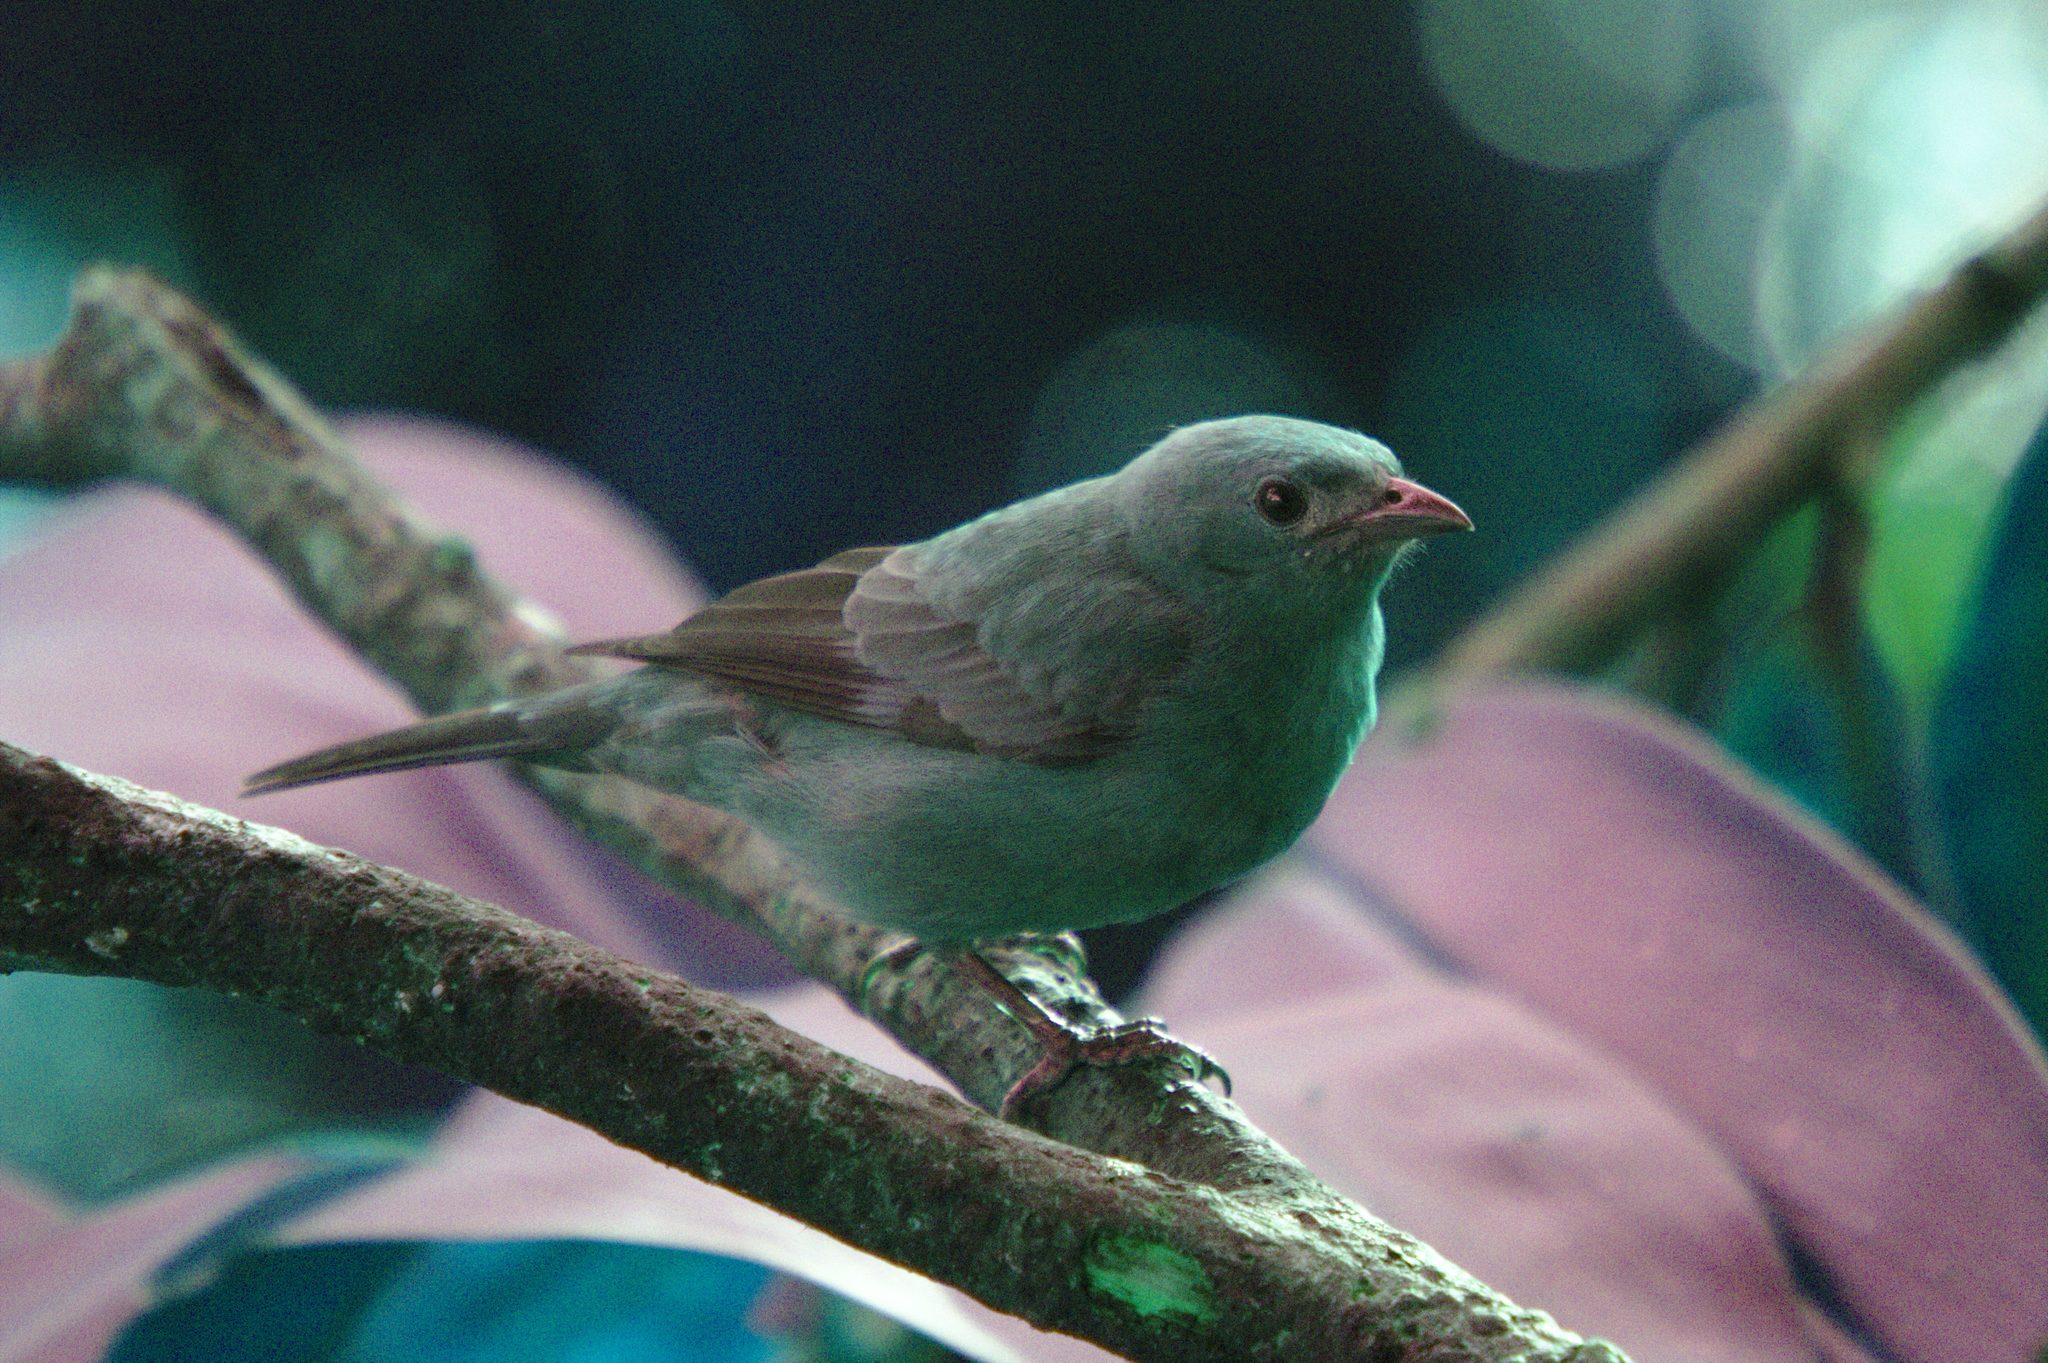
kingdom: Animalia
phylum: Chordata
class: Aves
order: Passeriformes
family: Thraupidae
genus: Thraupis
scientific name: Thraupis palmarum
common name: Palm tanager
